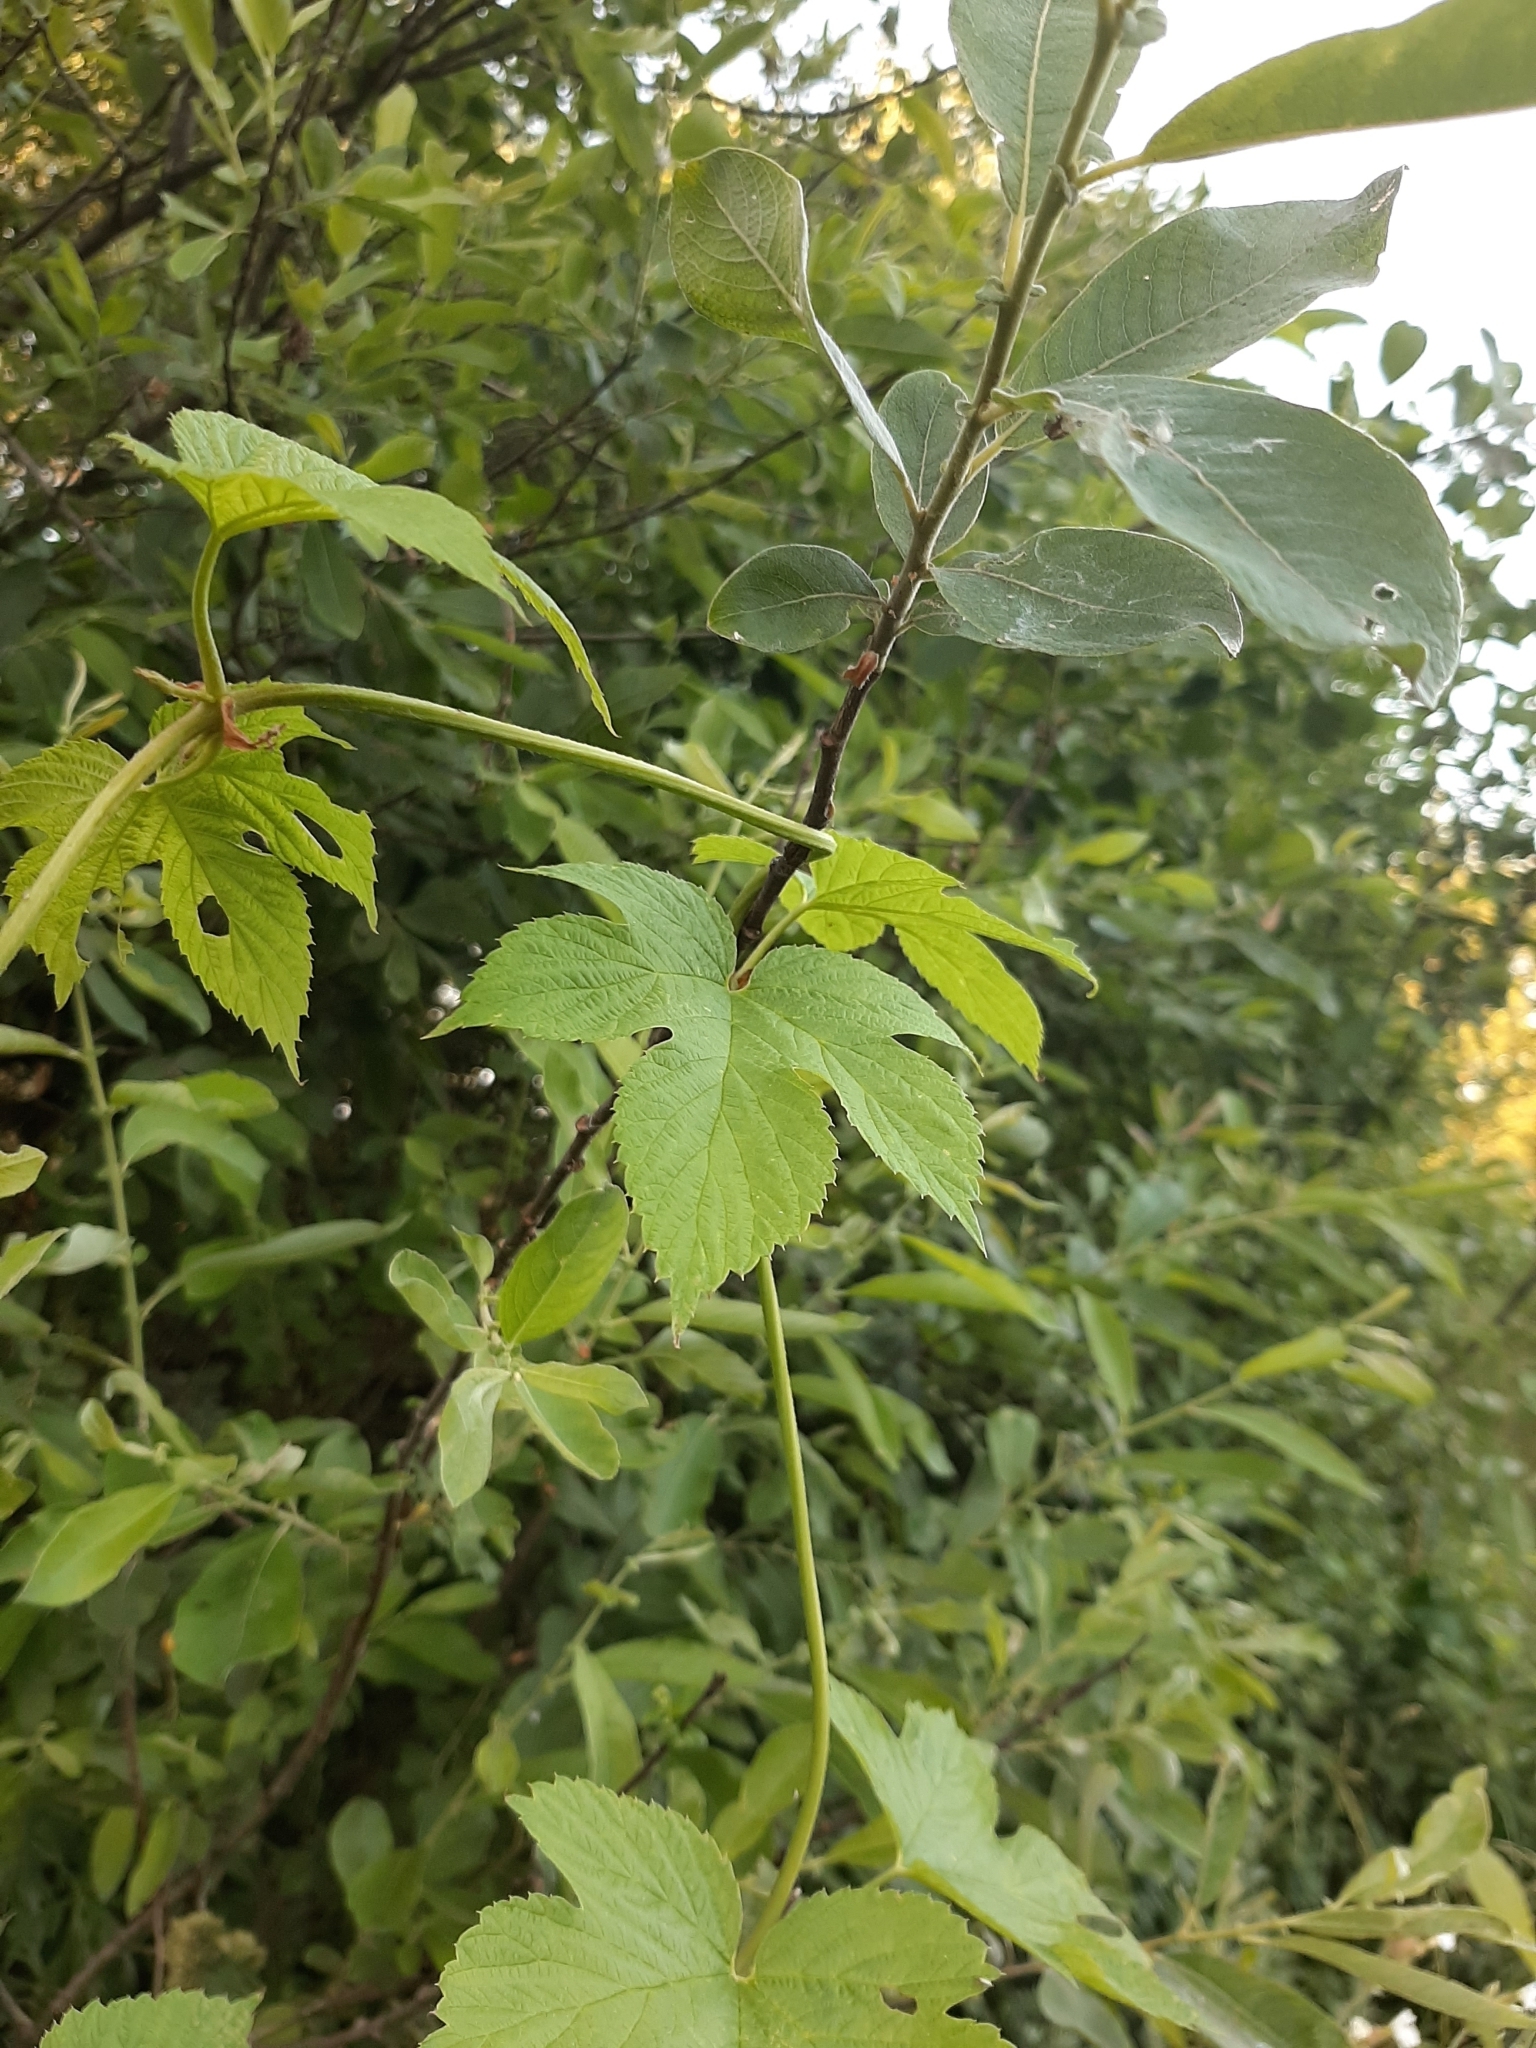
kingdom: Plantae
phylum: Tracheophyta
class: Magnoliopsida
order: Rosales
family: Cannabaceae
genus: Humulus
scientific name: Humulus lupulus
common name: Hop
